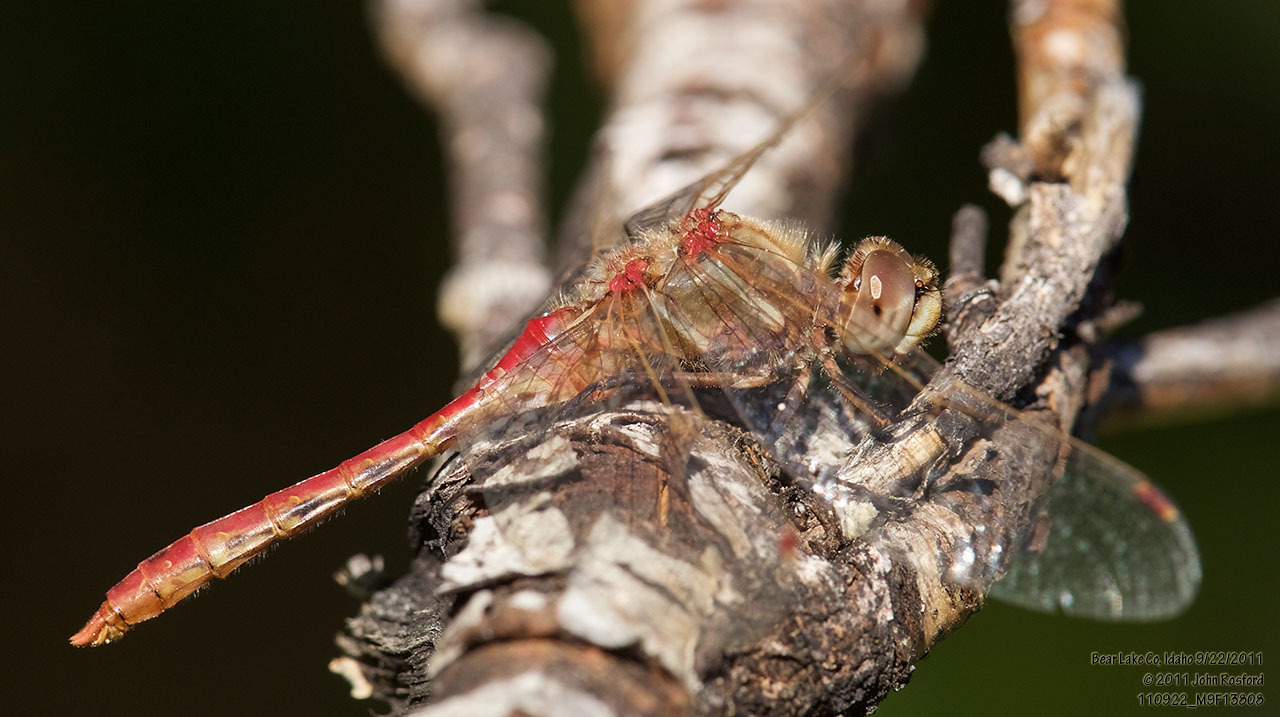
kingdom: Animalia
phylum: Arthropoda
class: Insecta
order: Odonata
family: Libellulidae
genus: Sympetrum
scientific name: Sympetrum pallipes
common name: Striped meadowhawk
